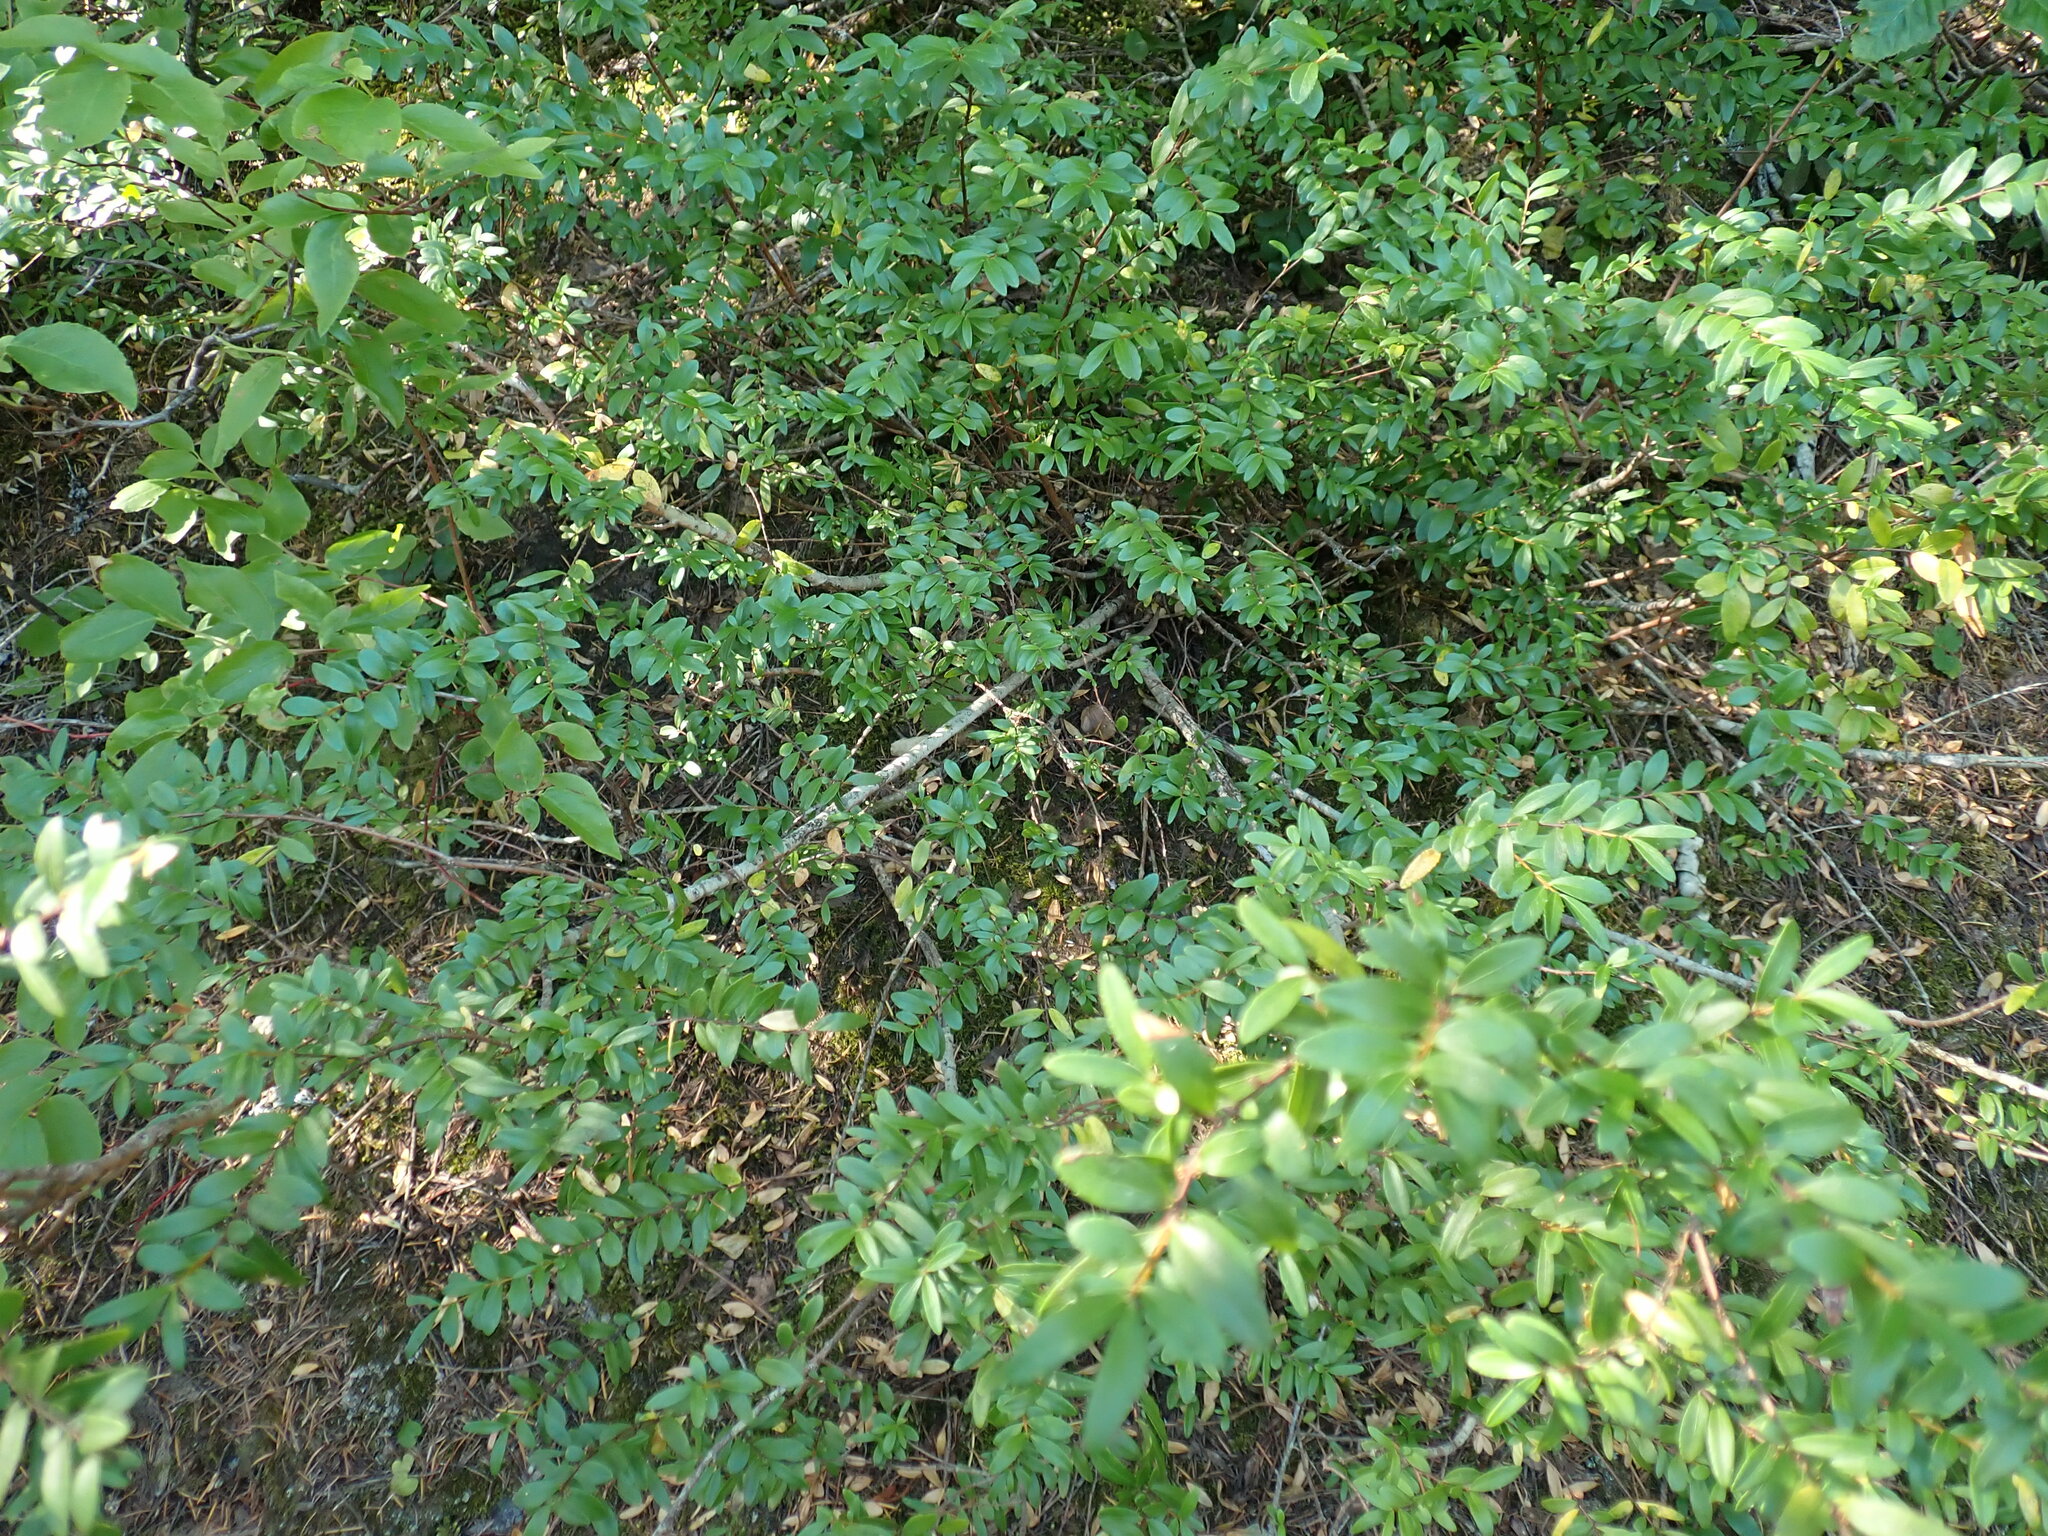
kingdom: Plantae
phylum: Tracheophyta
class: Magnoliopsida
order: Celastrales
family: Celastraceae
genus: Paxistima
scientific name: Paxistima myrsinites
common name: Mountain-lover
